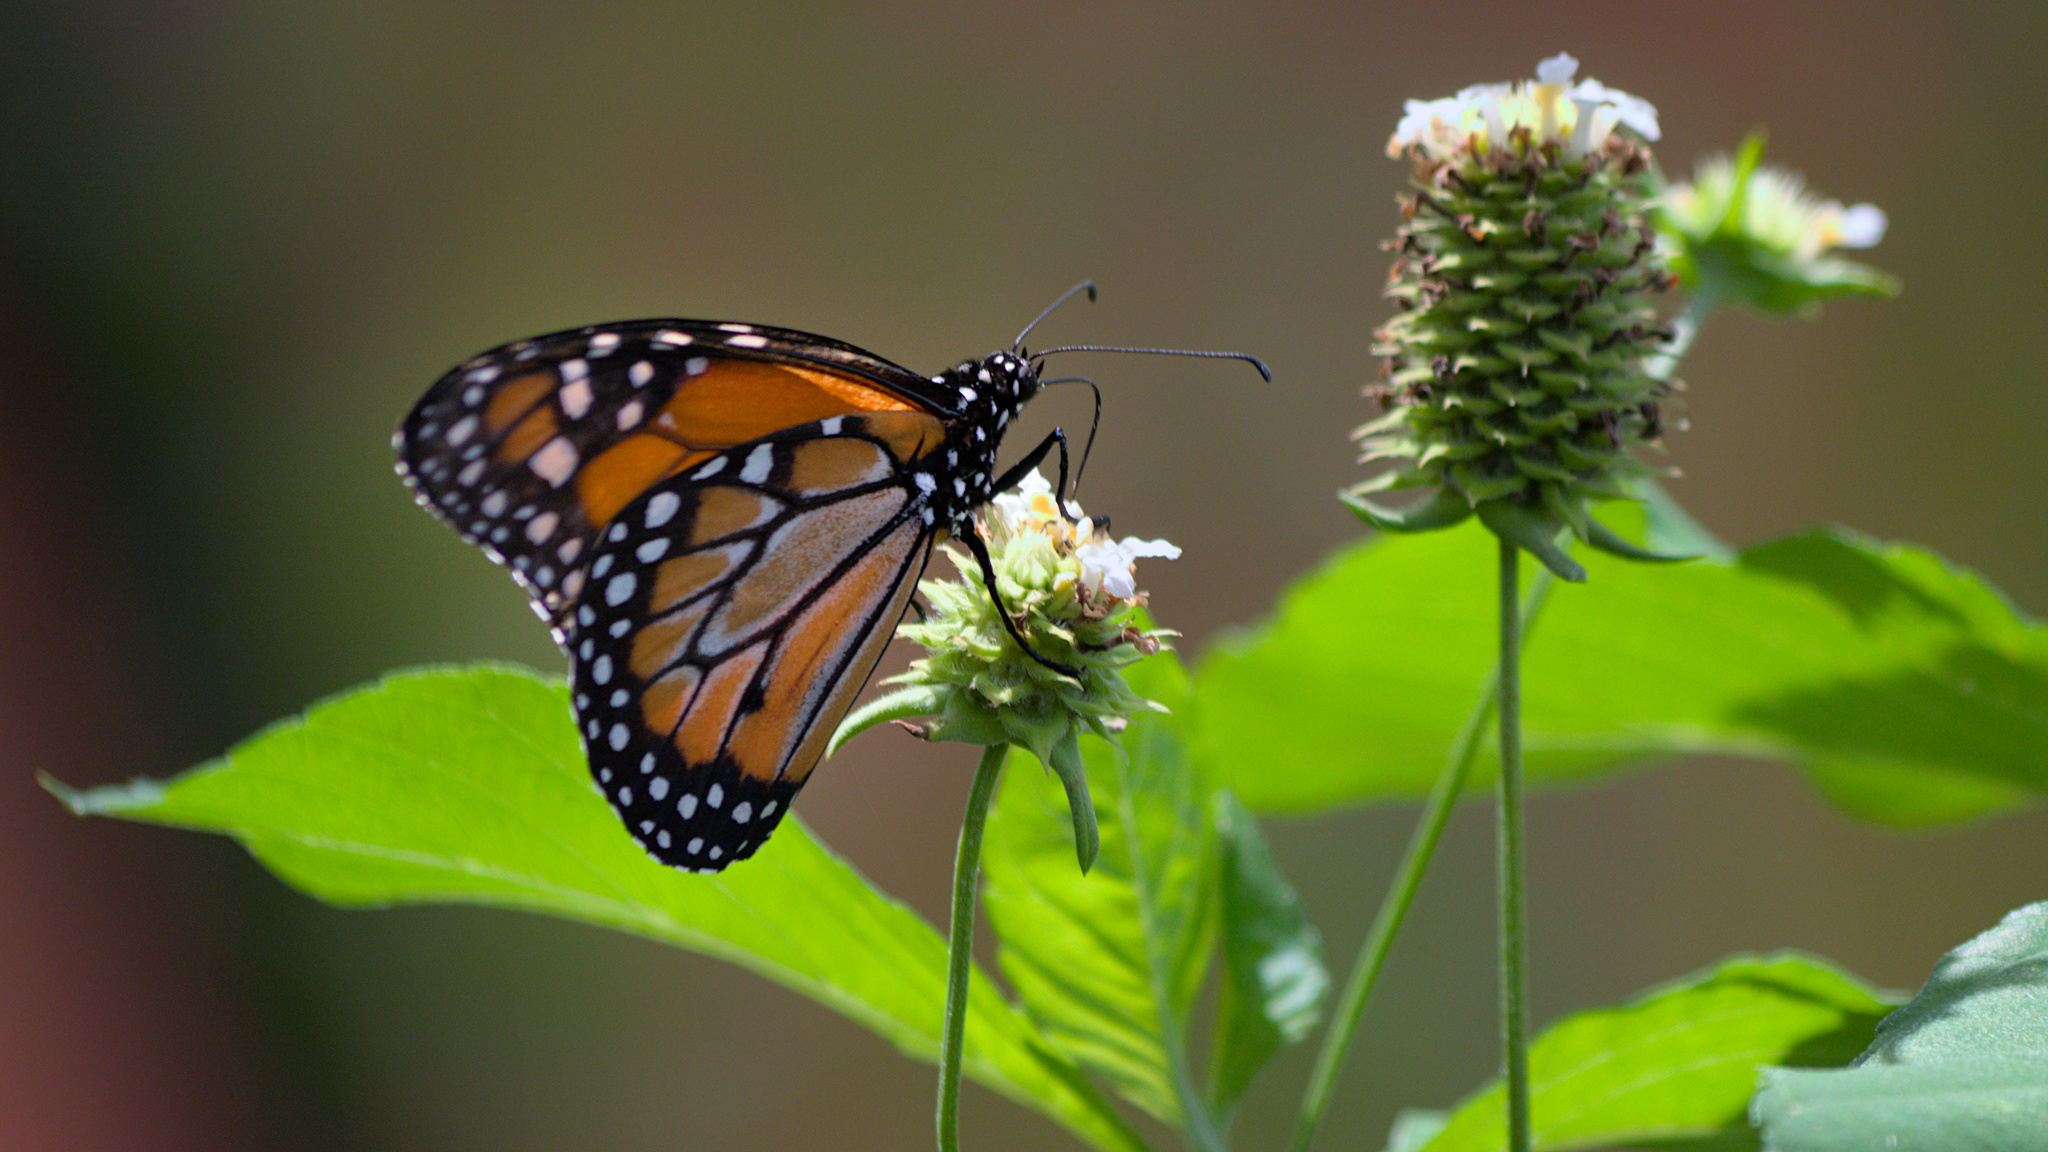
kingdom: Animalia
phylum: Arthropoda
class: Insecta
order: Lepidoptera
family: Nymphalidae
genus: Danaus
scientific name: Danaus erippus
